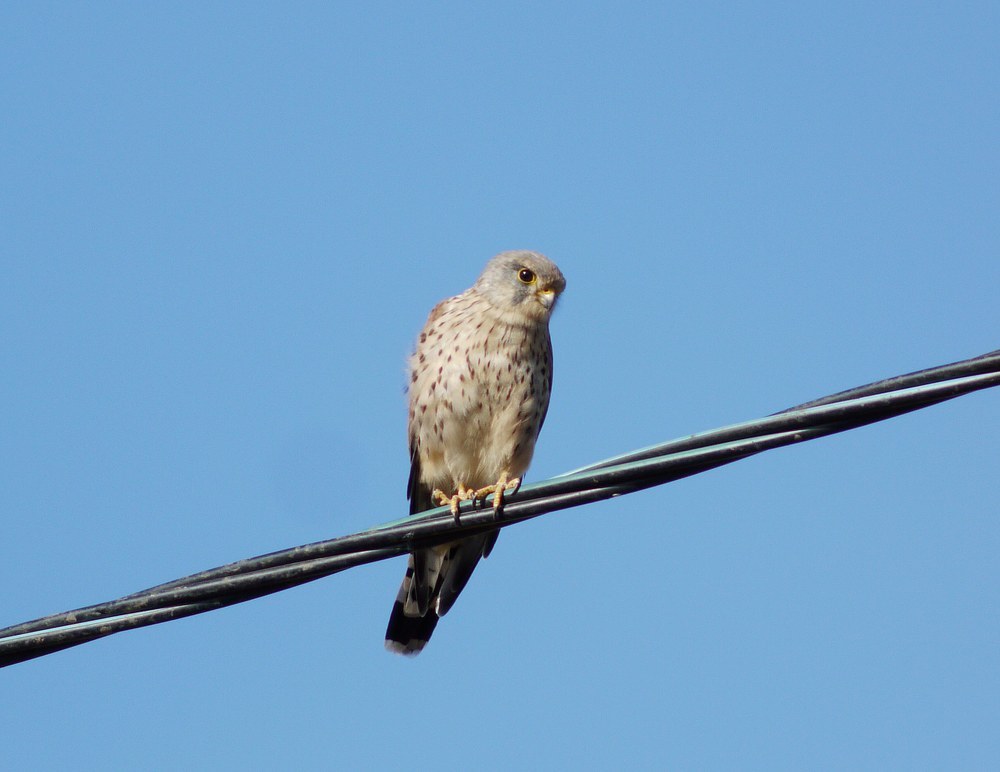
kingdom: Animalia
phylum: Chordata
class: Aves
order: Falconiformes
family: Falconidae
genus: Falco
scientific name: Falco tinnunculus
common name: Common kestrel
